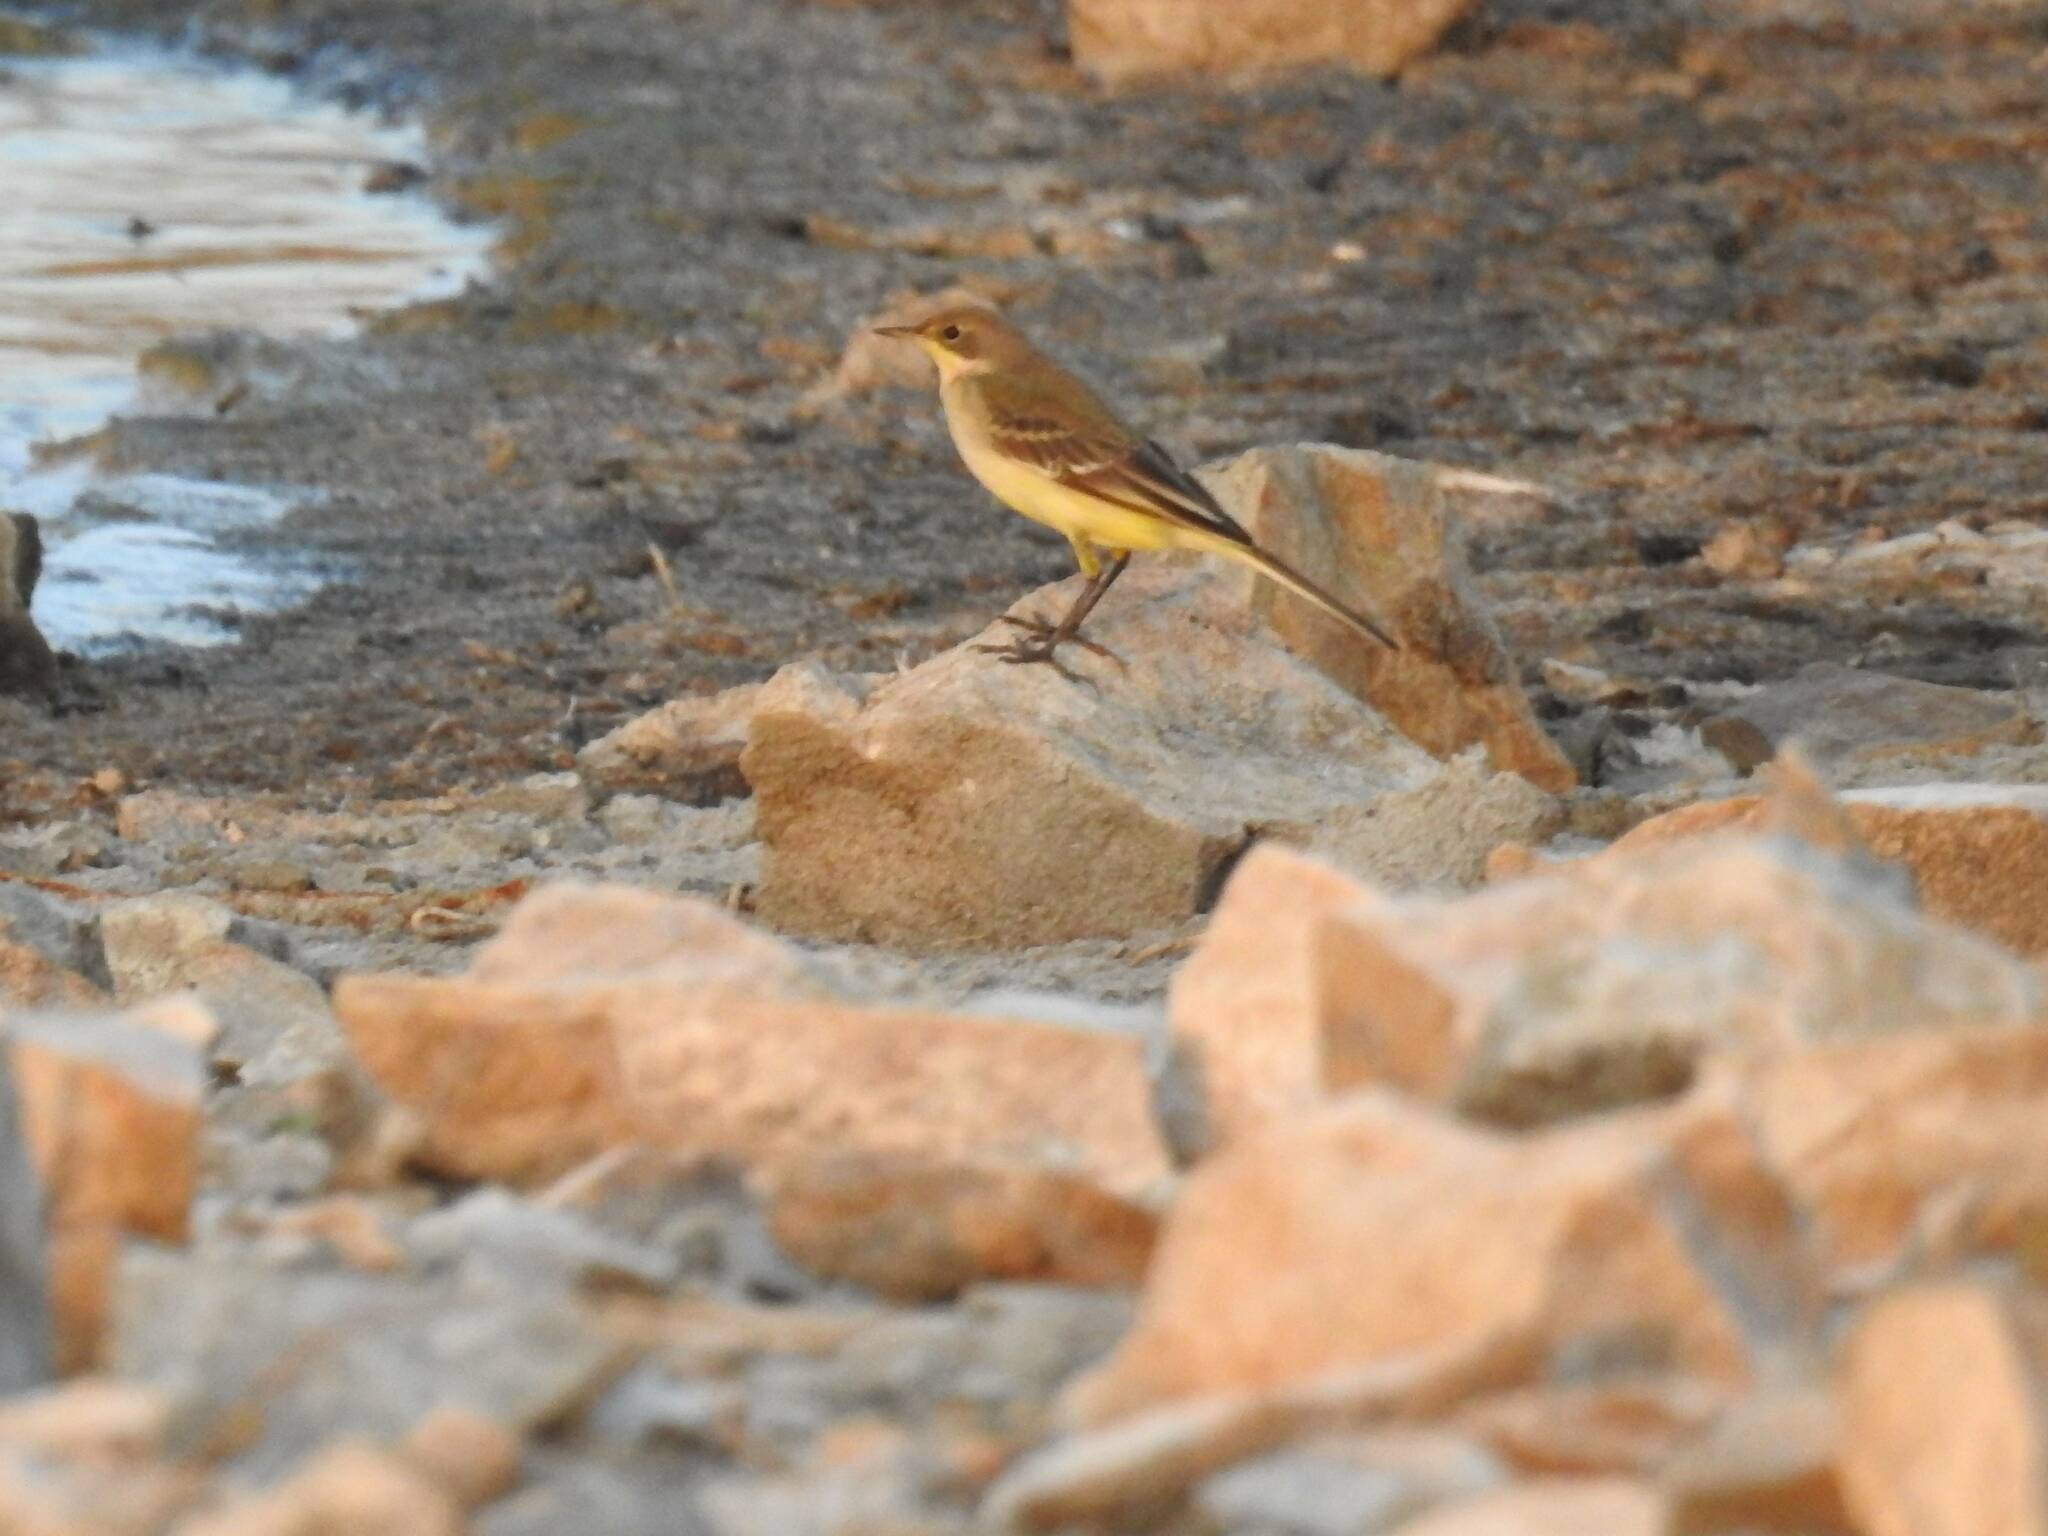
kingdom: Animalia
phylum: Chordata
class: Aves
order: Passeriformes
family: Motacillidae
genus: Motacilla
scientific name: Motacilla flava
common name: Western yellow wagtail
